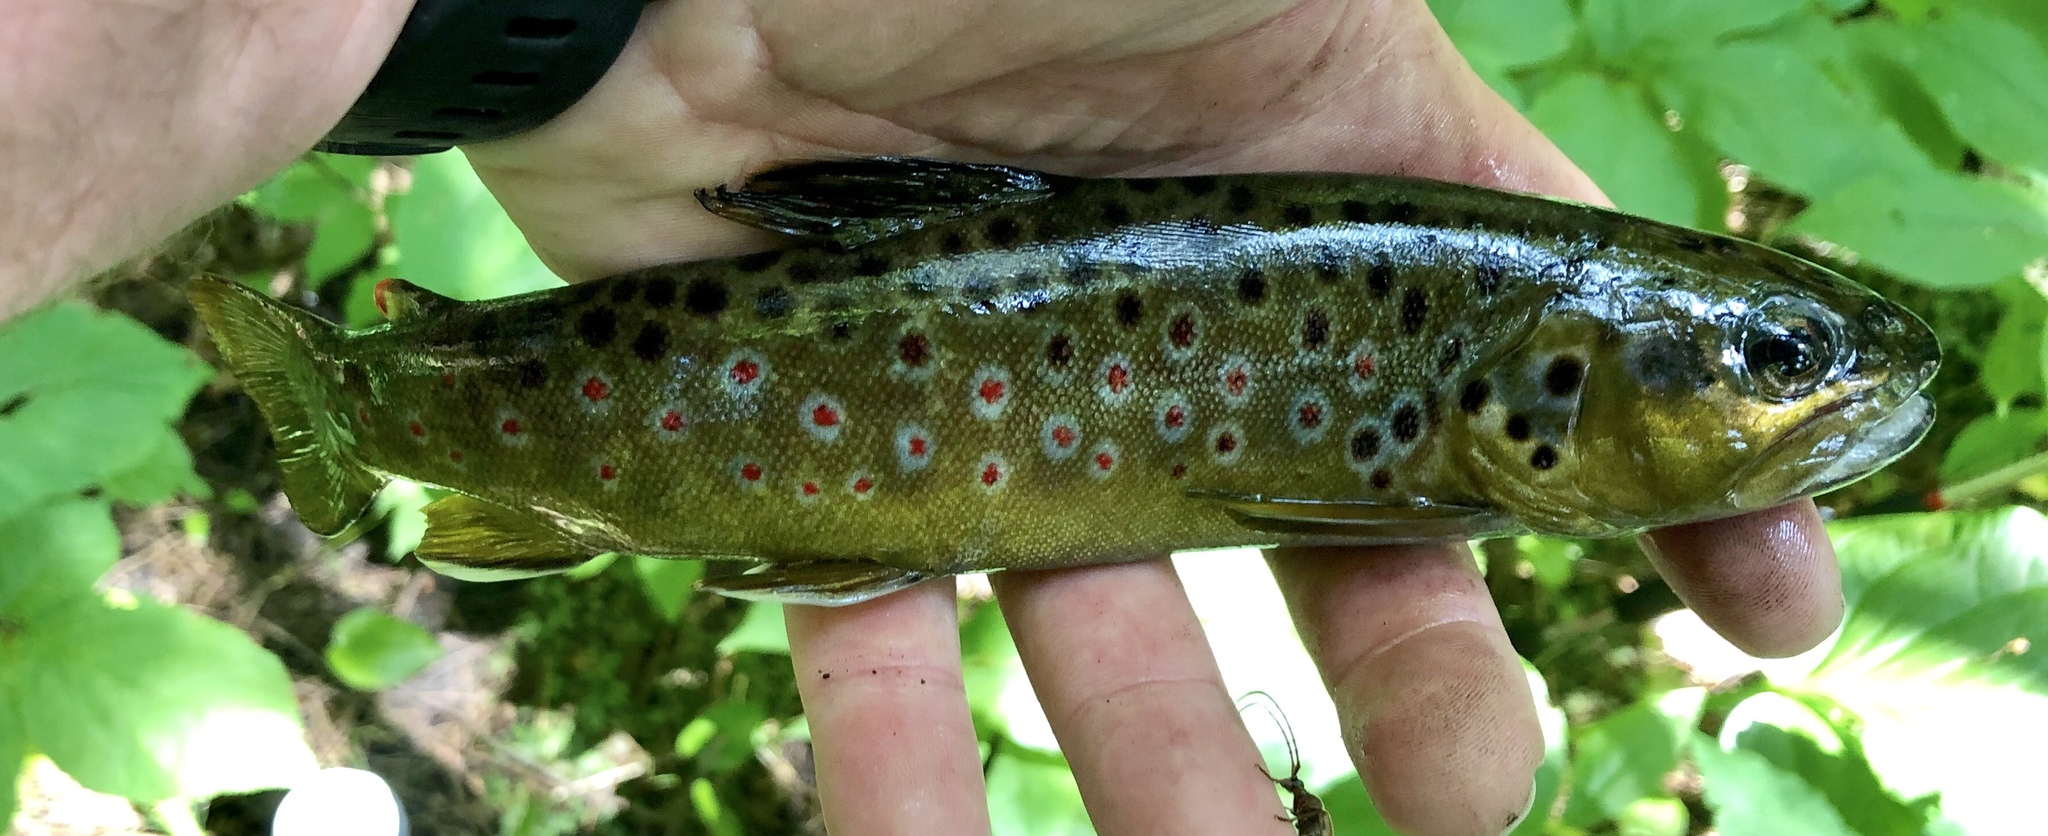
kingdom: Animalia
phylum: Chordata
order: Salmoniformes
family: Salmonidae
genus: Salmo
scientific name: Salmo trutta
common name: Brown trout
